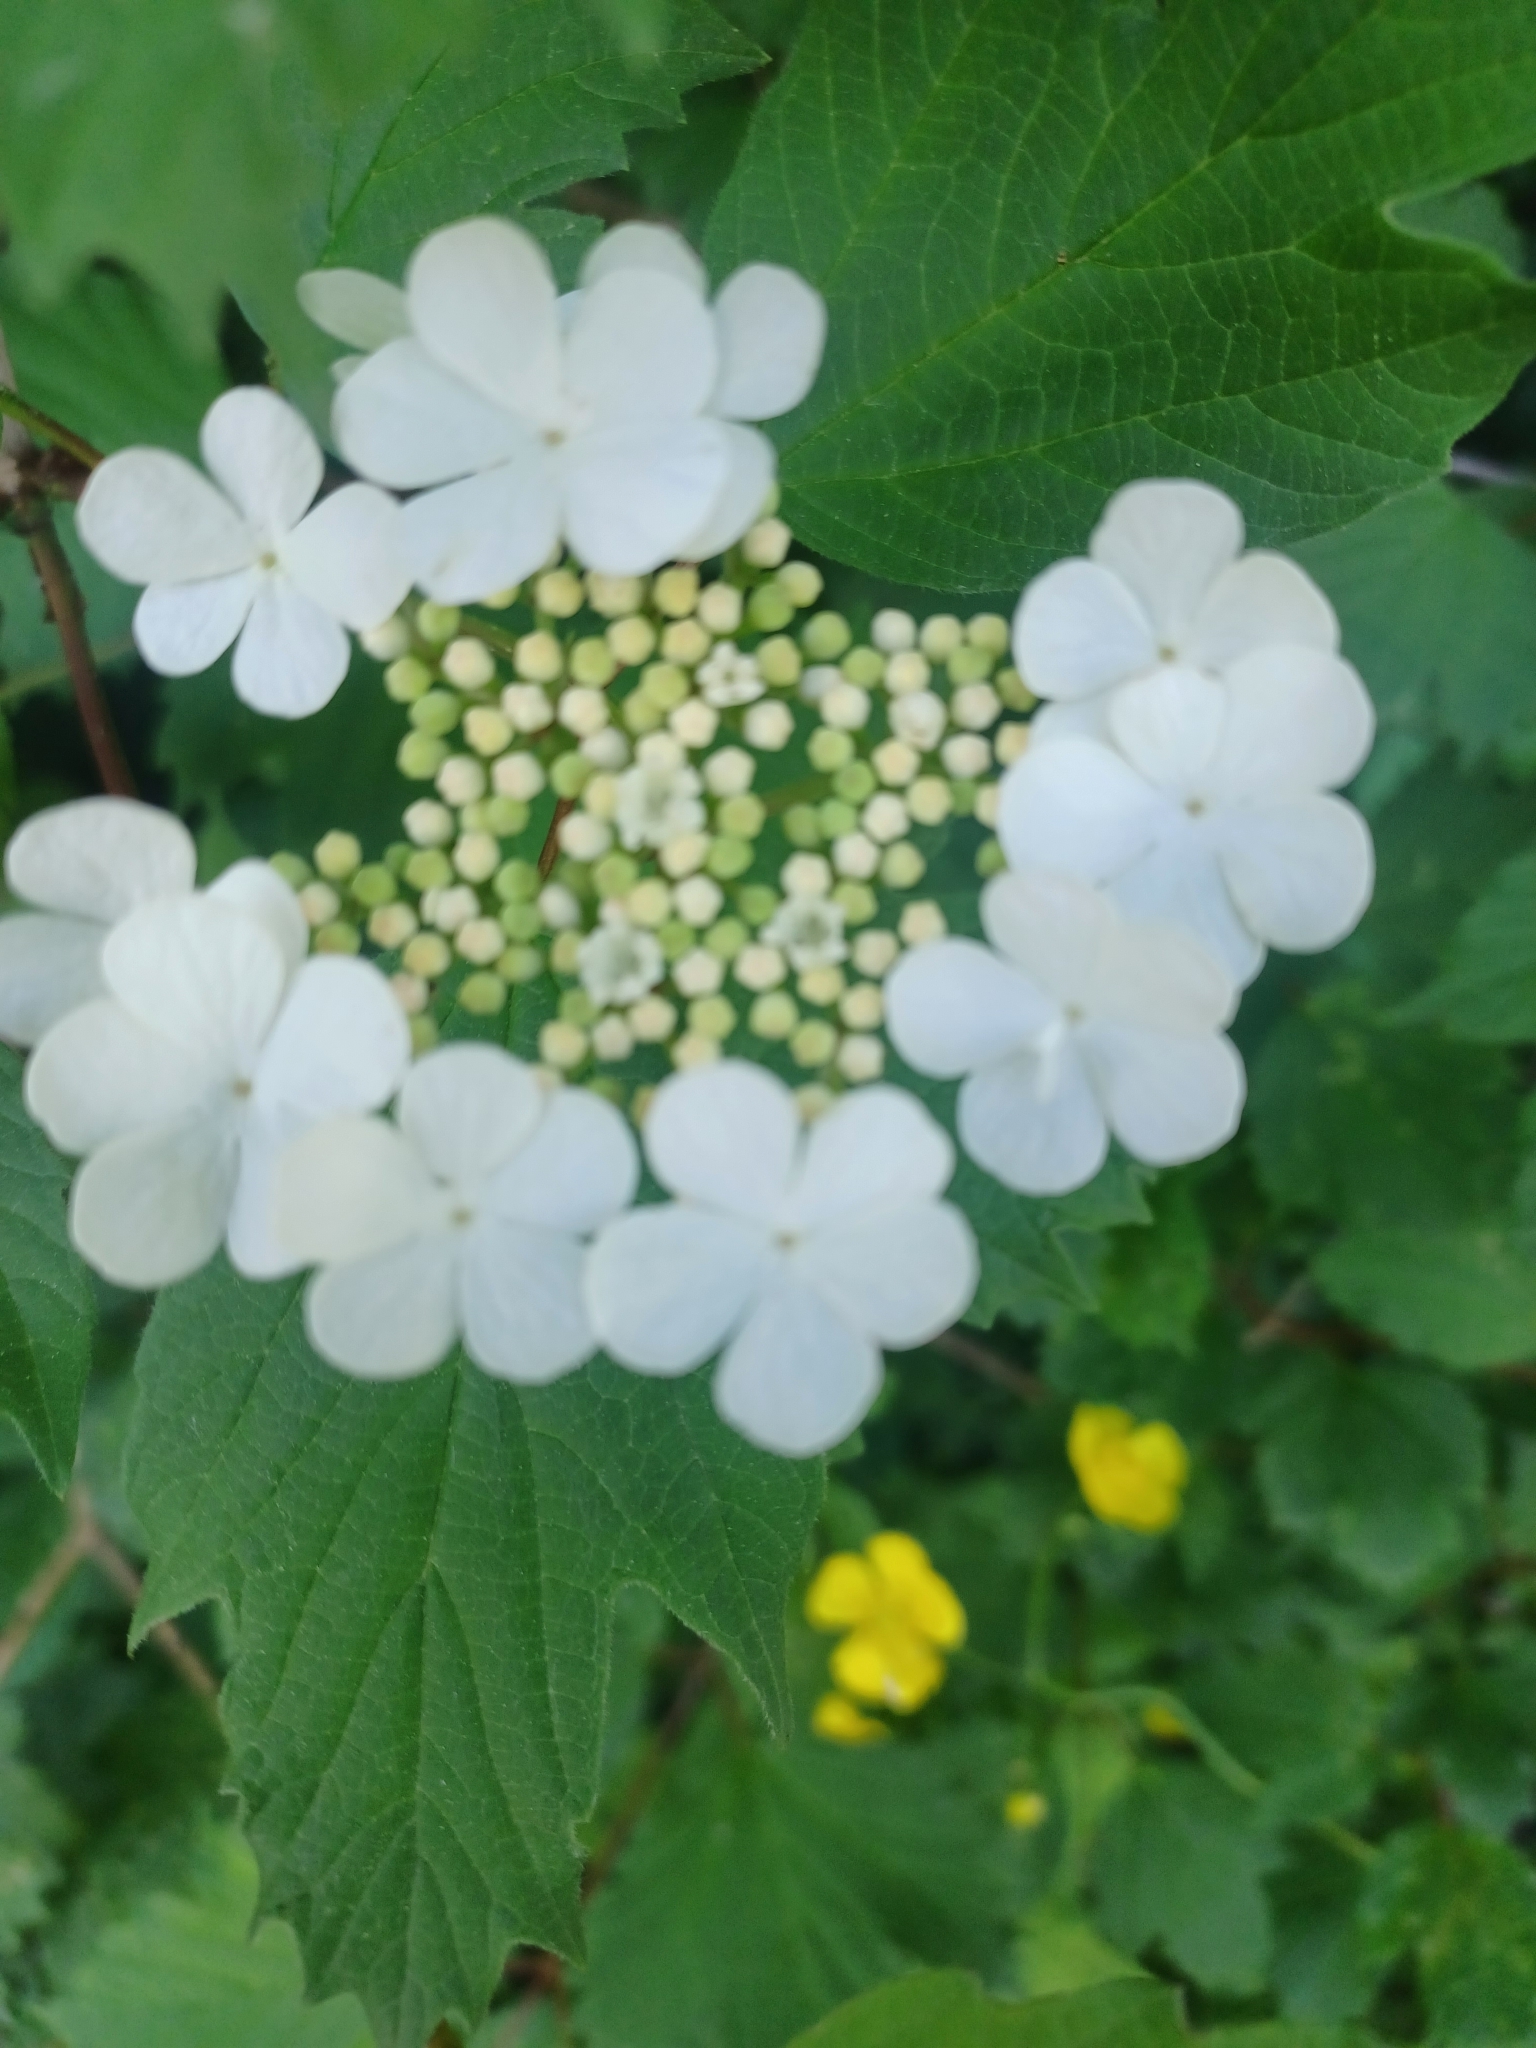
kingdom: Plantae
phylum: Tracheophyta
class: Magnoliopsida
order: Dipsacales
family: Viburnaceae
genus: Viburnum
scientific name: Viburnum opulus
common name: Guelder-rose
